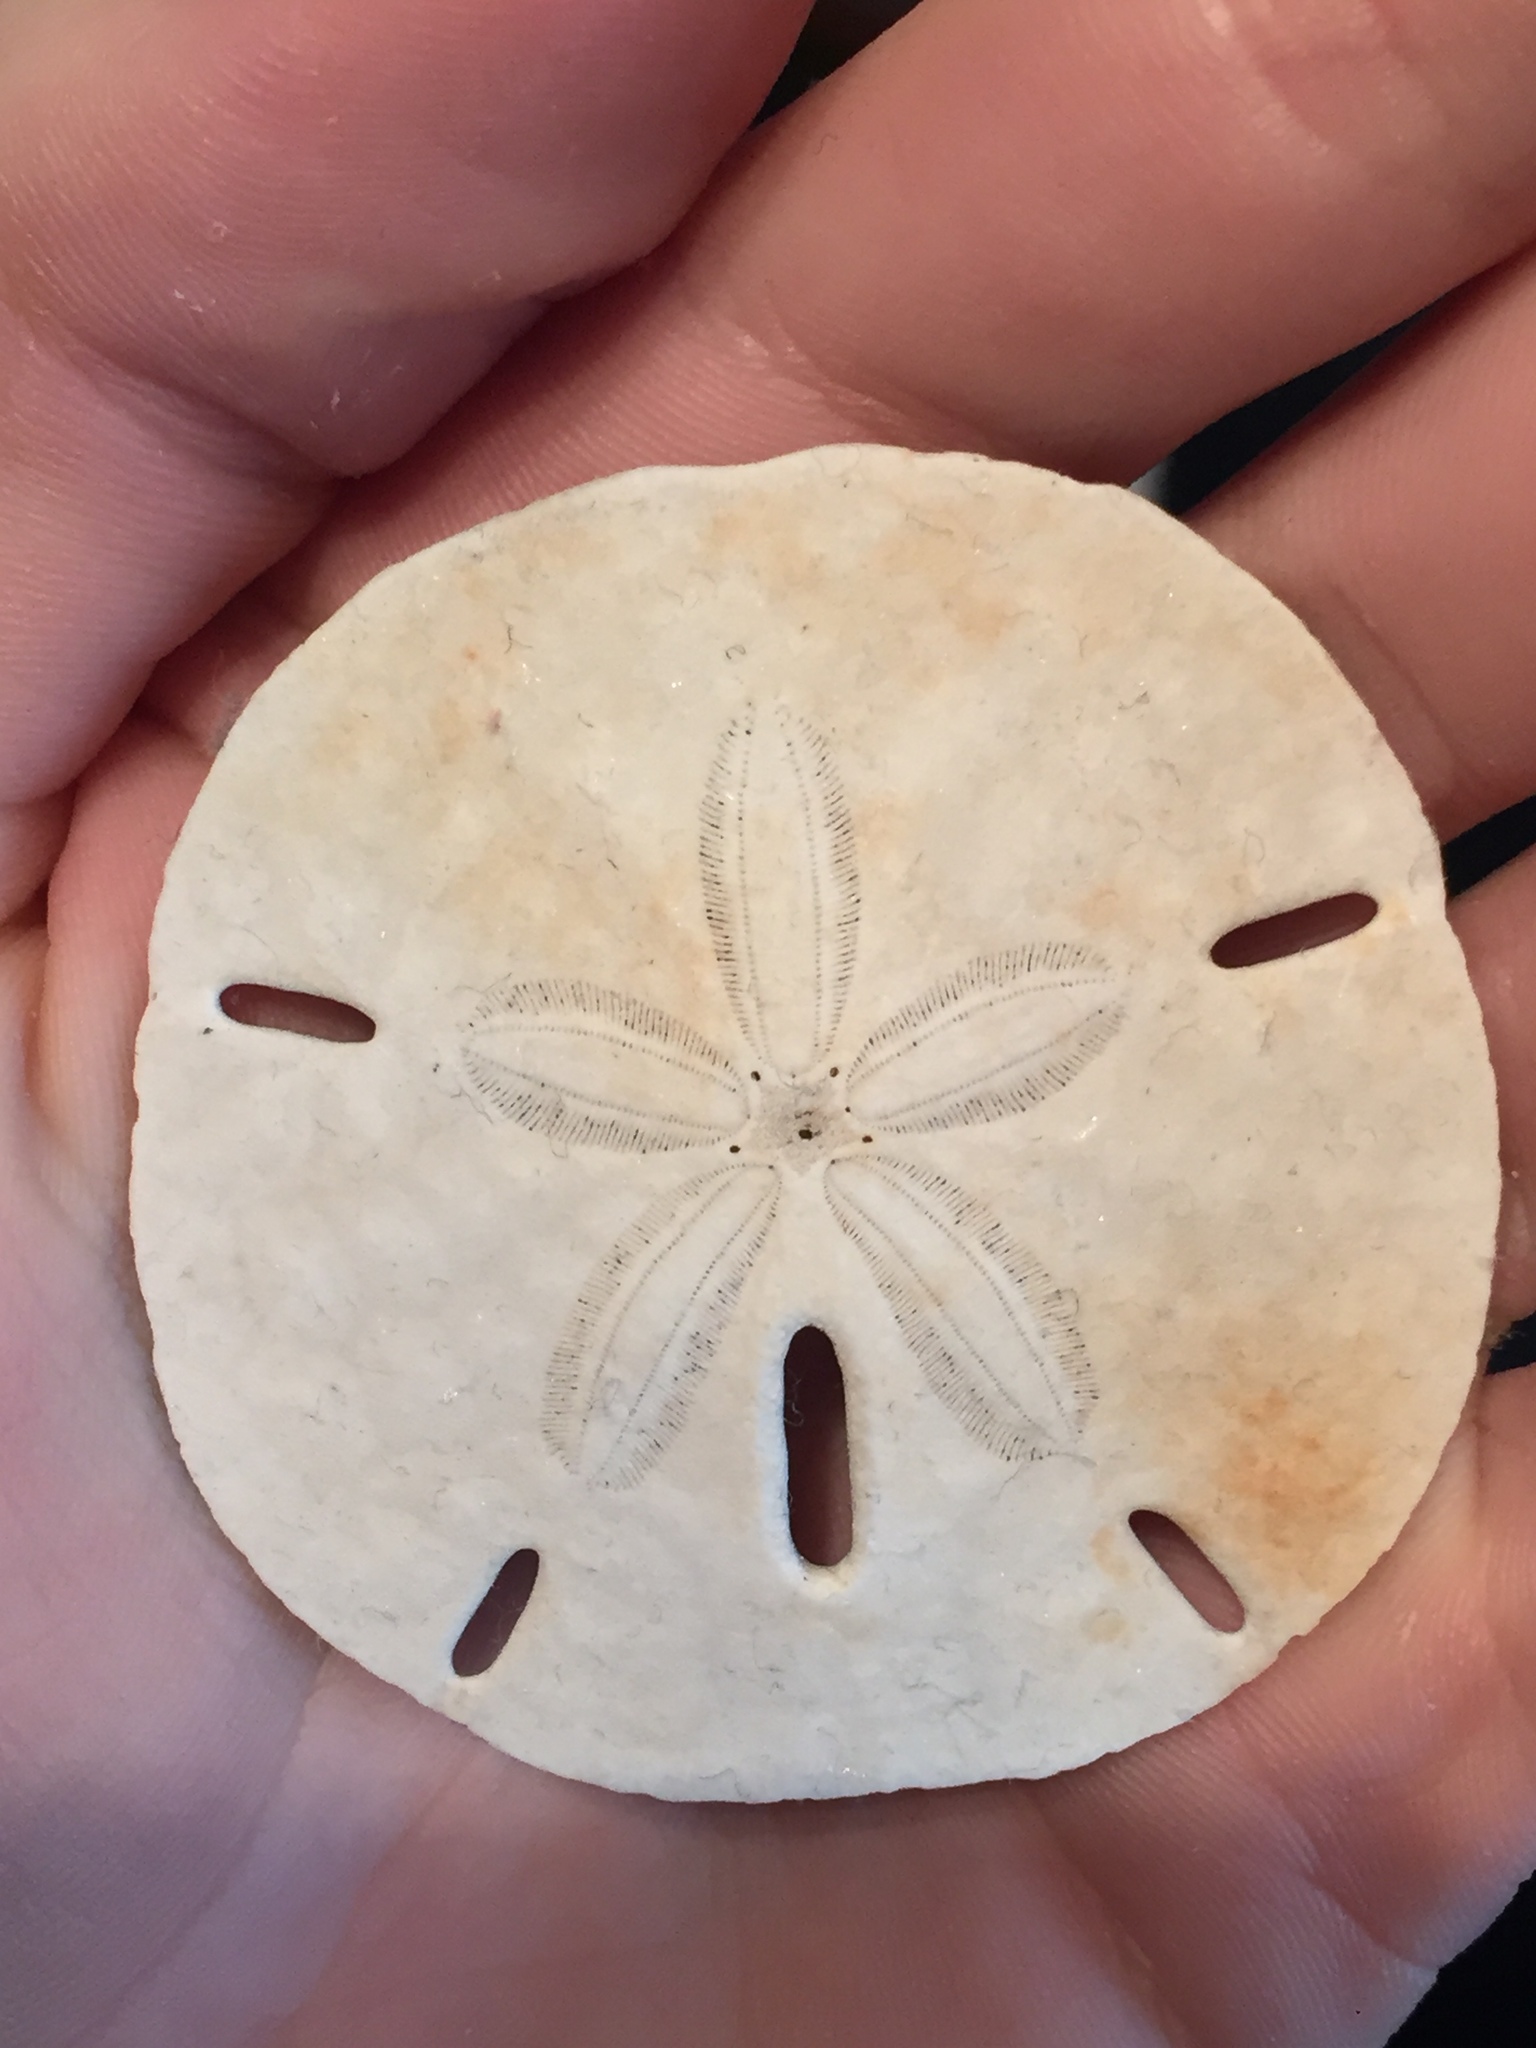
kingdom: Animalia
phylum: Echinodermata
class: Echinoidea
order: Echinolampadacea
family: Mellitidae
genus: Mellita
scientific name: Mellita quinquiesperforata
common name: Sand dollar
